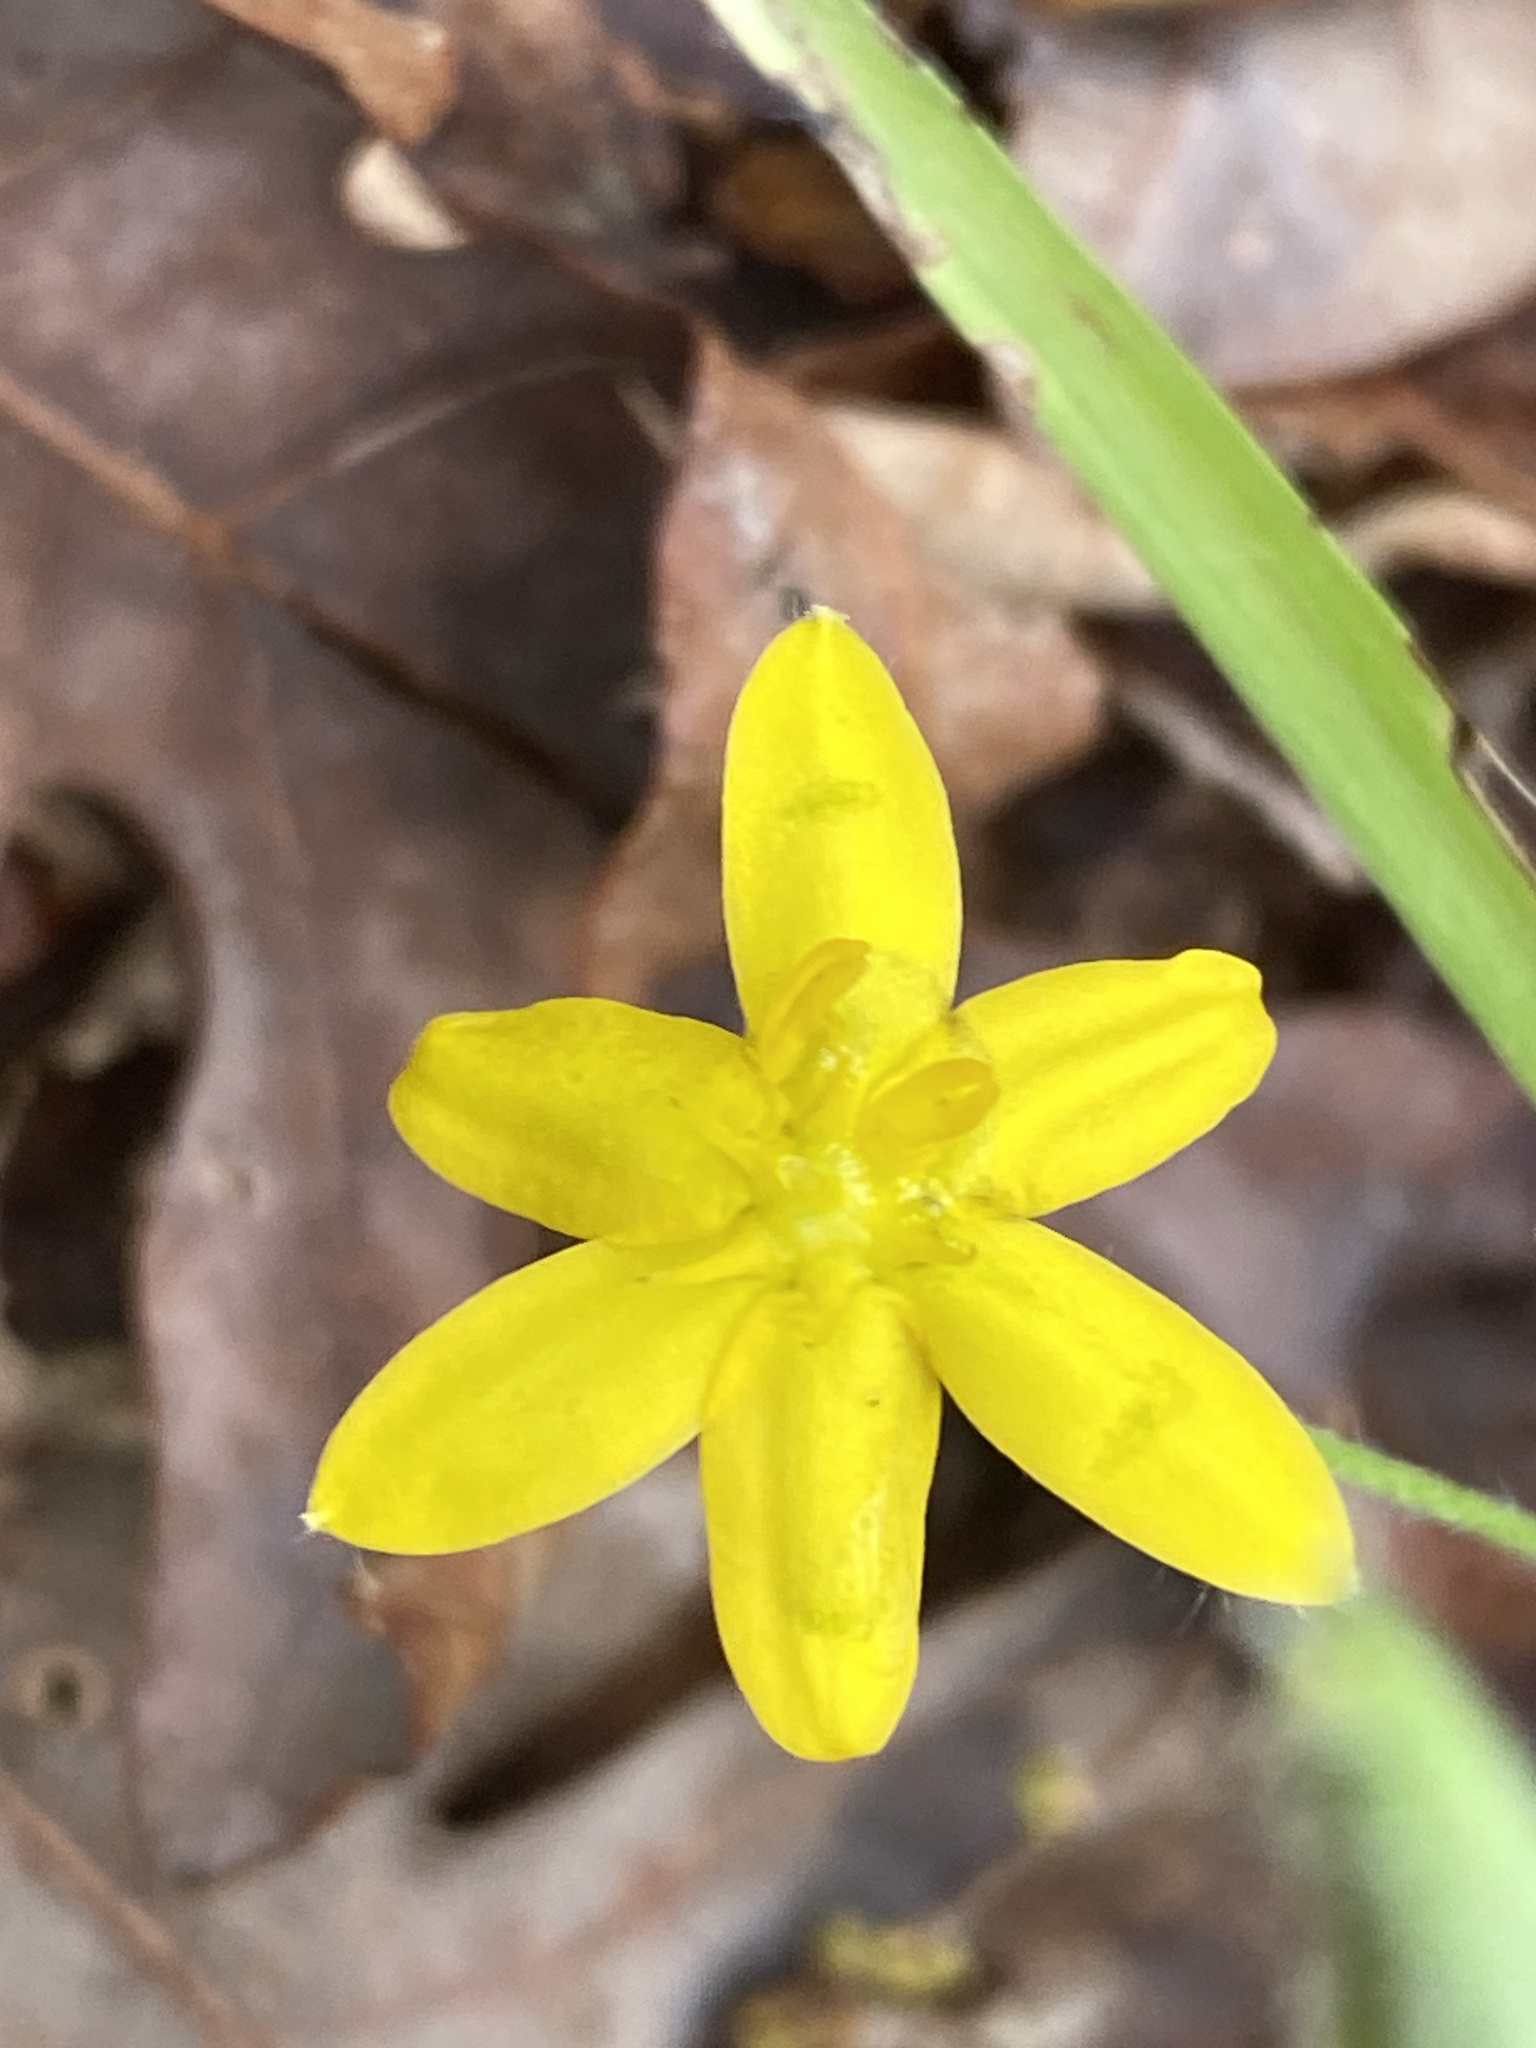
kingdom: Plantae
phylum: Tracheophyta
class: Liliopsida
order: Asparagales
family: Hypoxidaceae
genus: Hypoxis
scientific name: Hypoxis hirsuta
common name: Common goldstar
